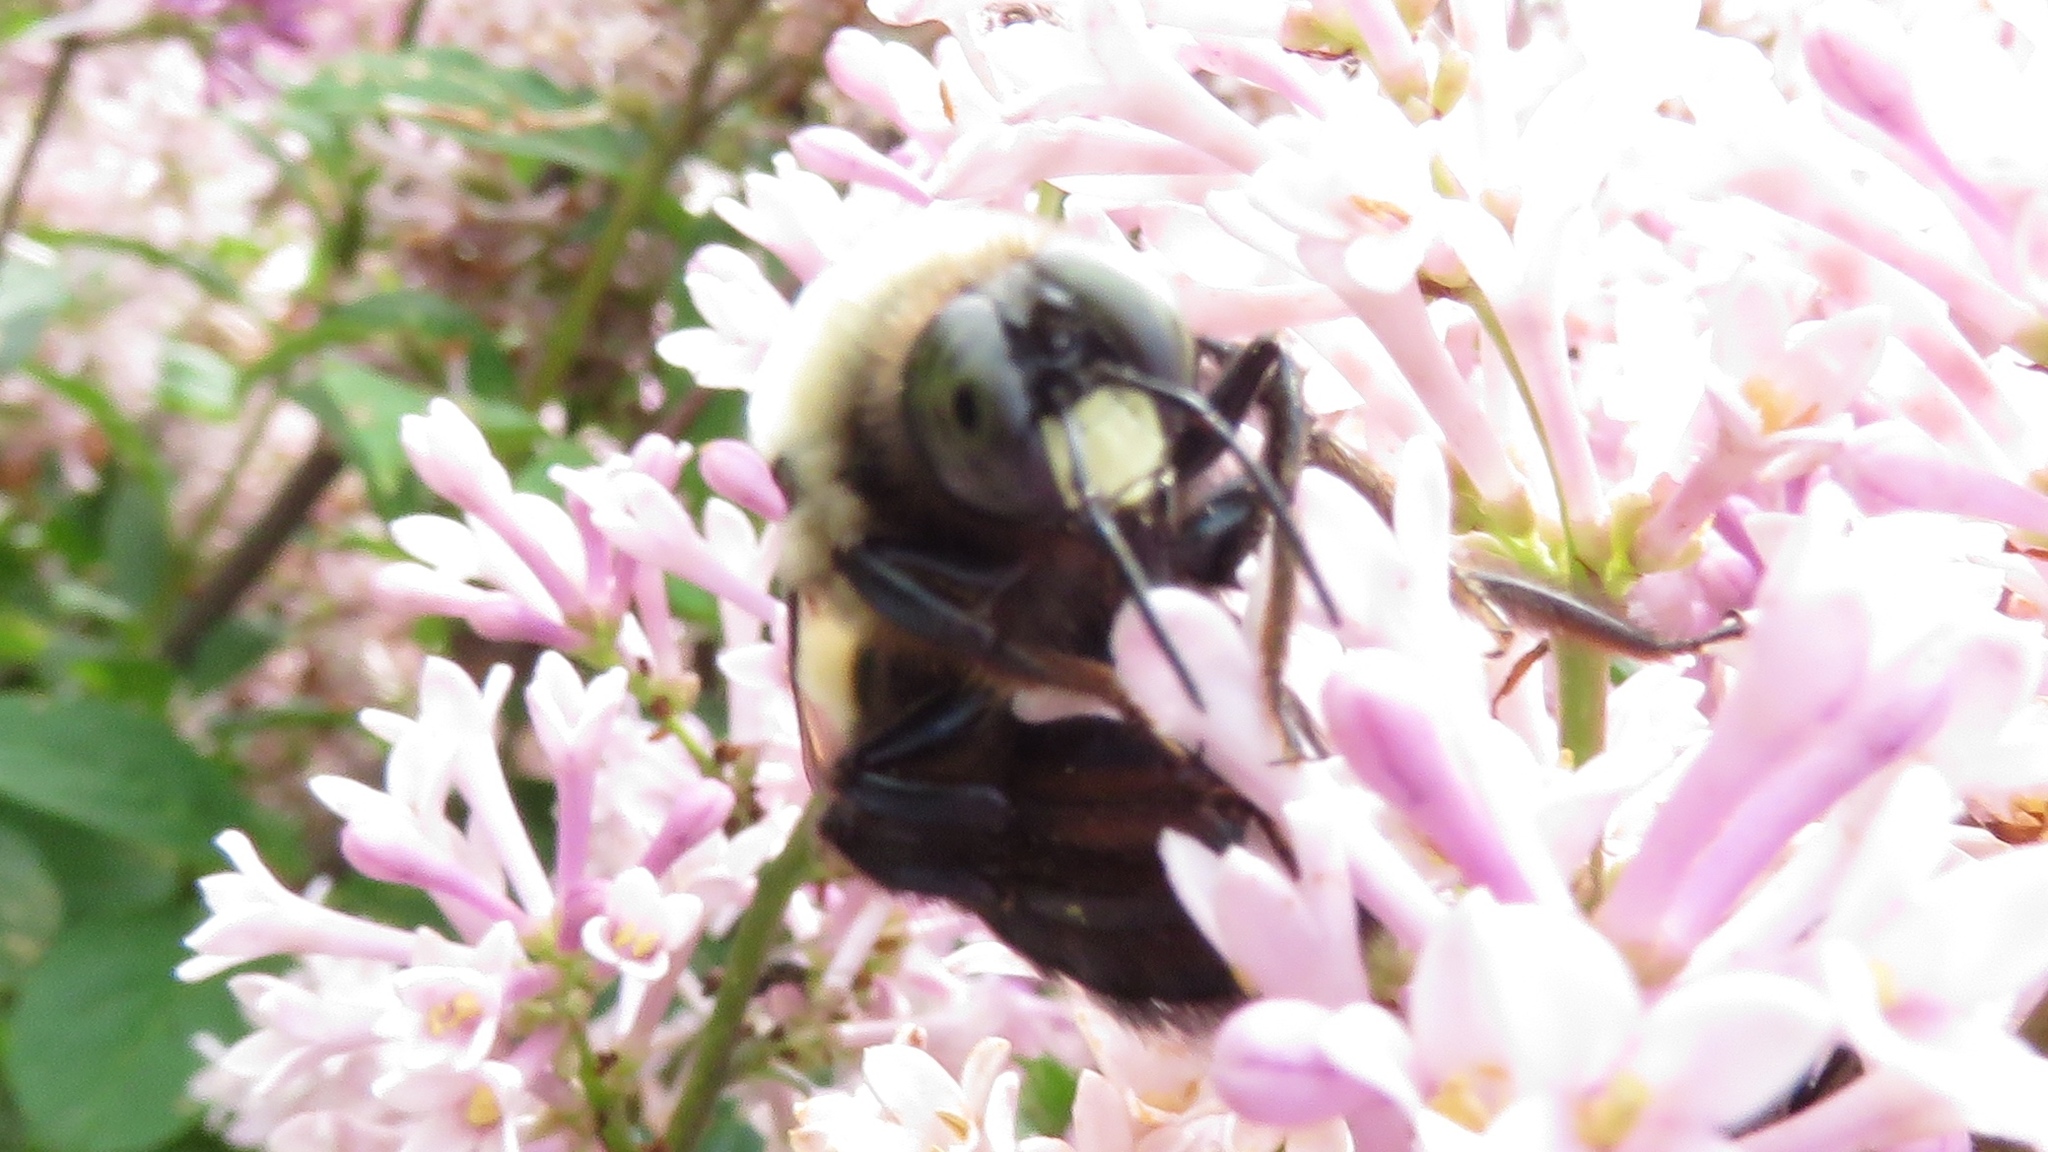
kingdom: Animalia
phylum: Arthropoda
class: Insecta
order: Hymenoptera
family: Apidae
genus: Xylocopa
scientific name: Xylocopa virginica
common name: Carpenter bee
